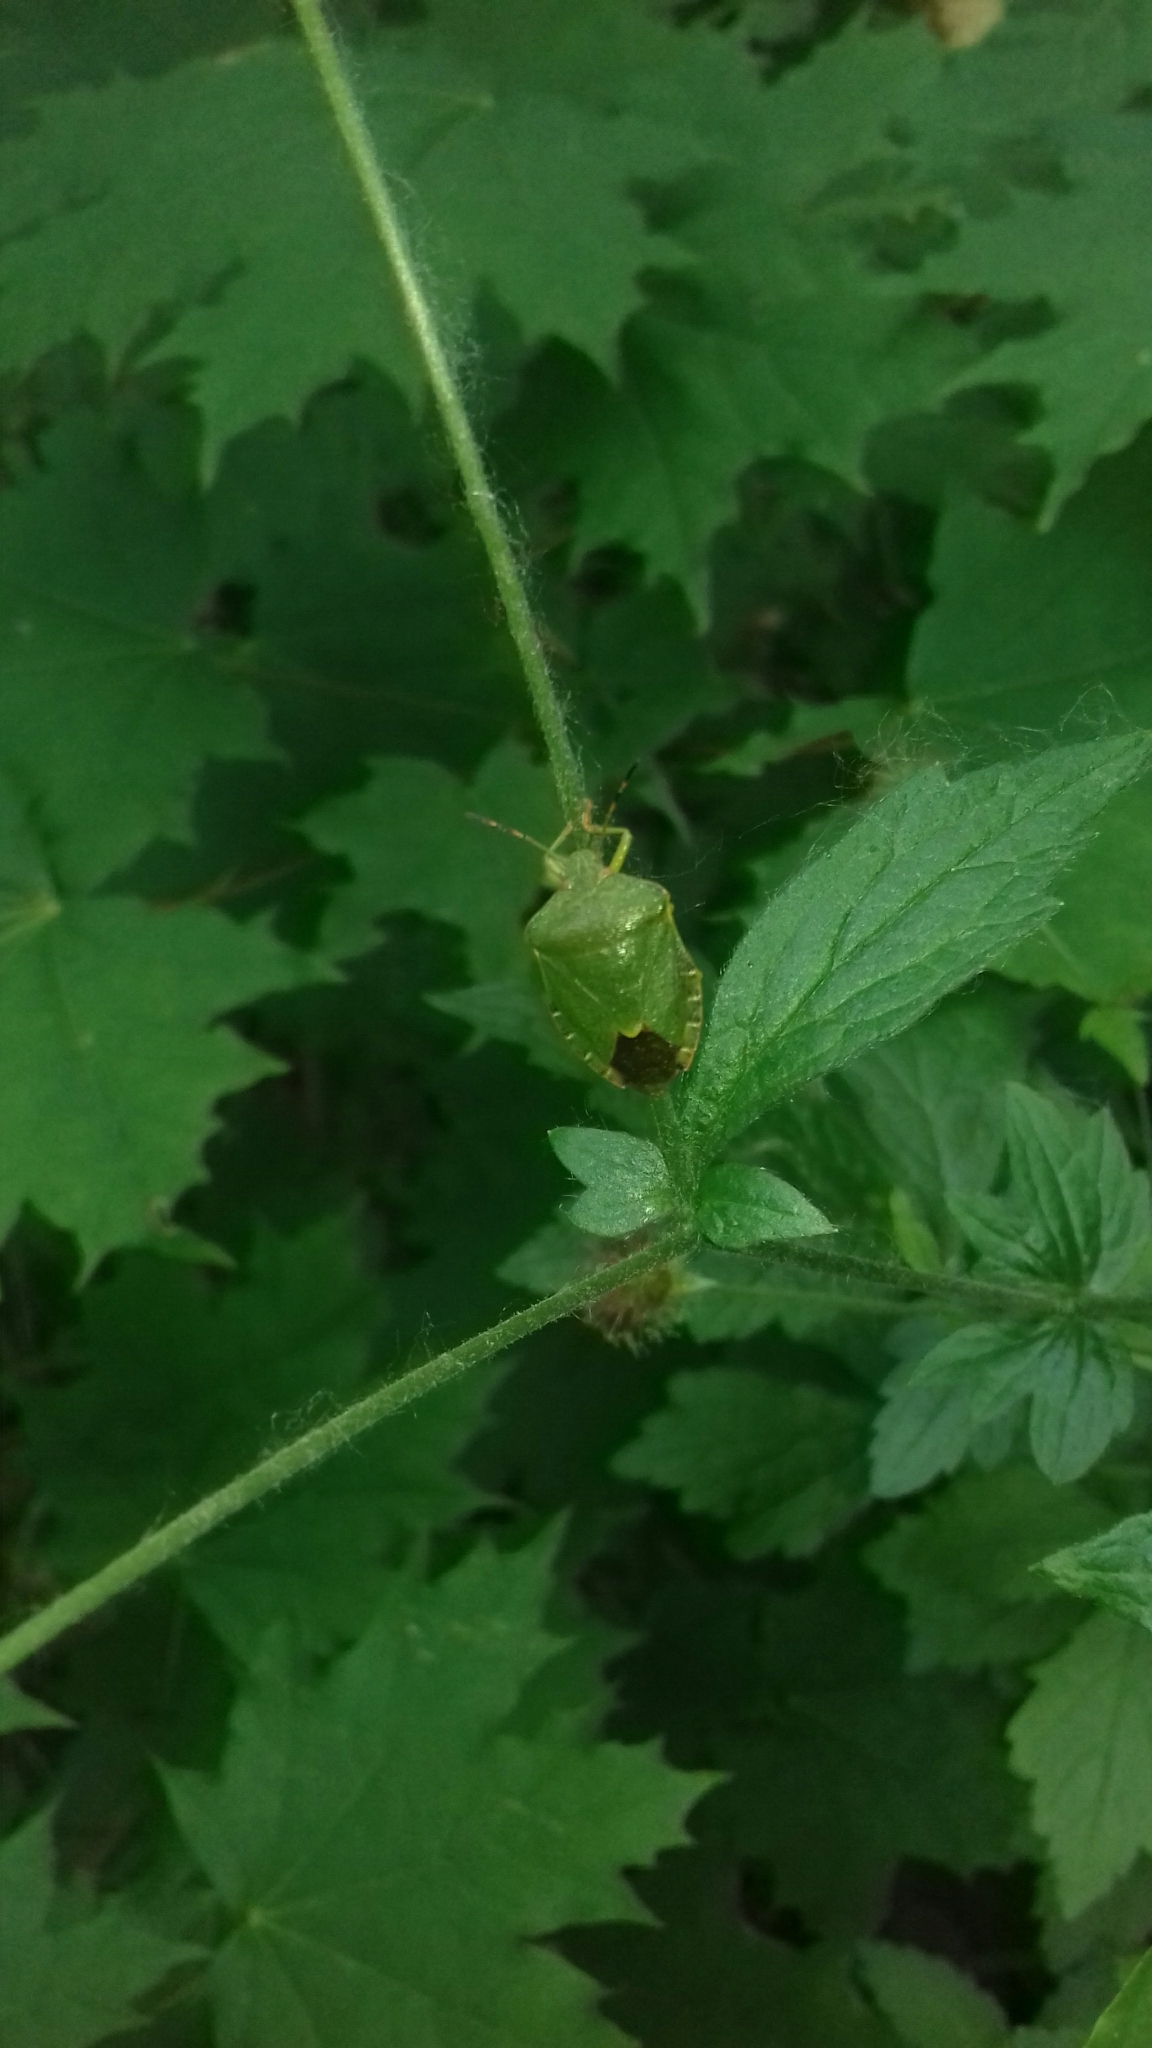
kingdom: Animalia
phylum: Arthropoda
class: Insecta
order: Hemiptera
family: Pentatomidae
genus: Palomena
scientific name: Palomena prasina
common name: Green shieldbug
